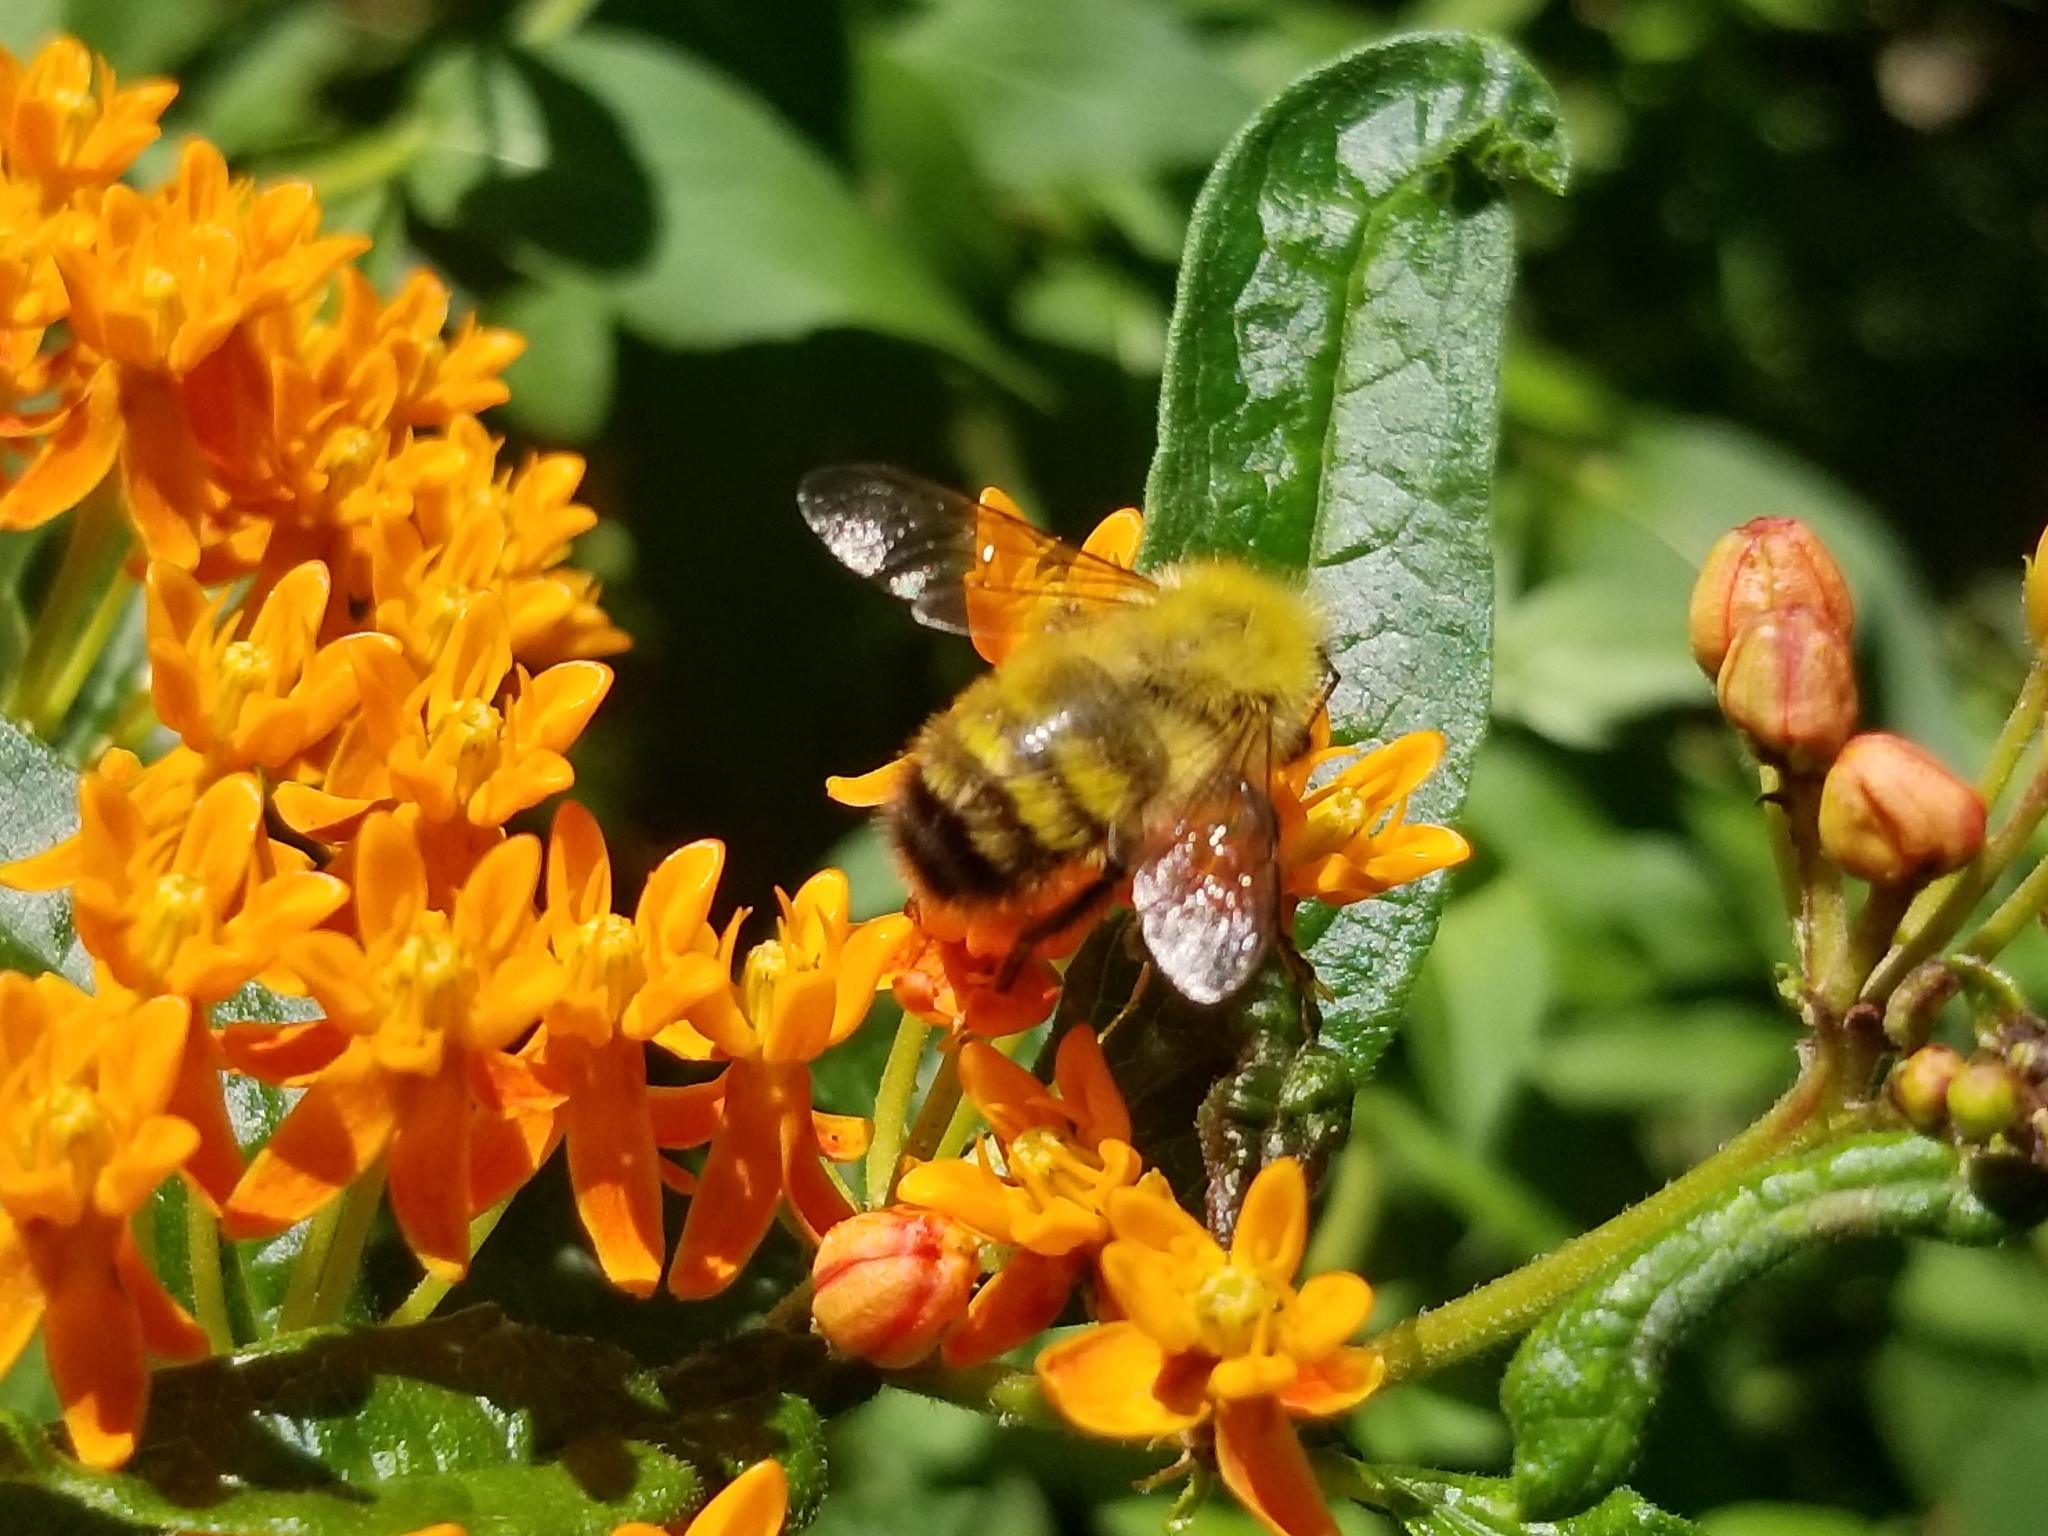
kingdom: Animalia
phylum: Arthropoda
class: Insecta
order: Hymenoptera
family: Apidae
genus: Bombus
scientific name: Bombus perplexus
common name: Confusing bumble bee
